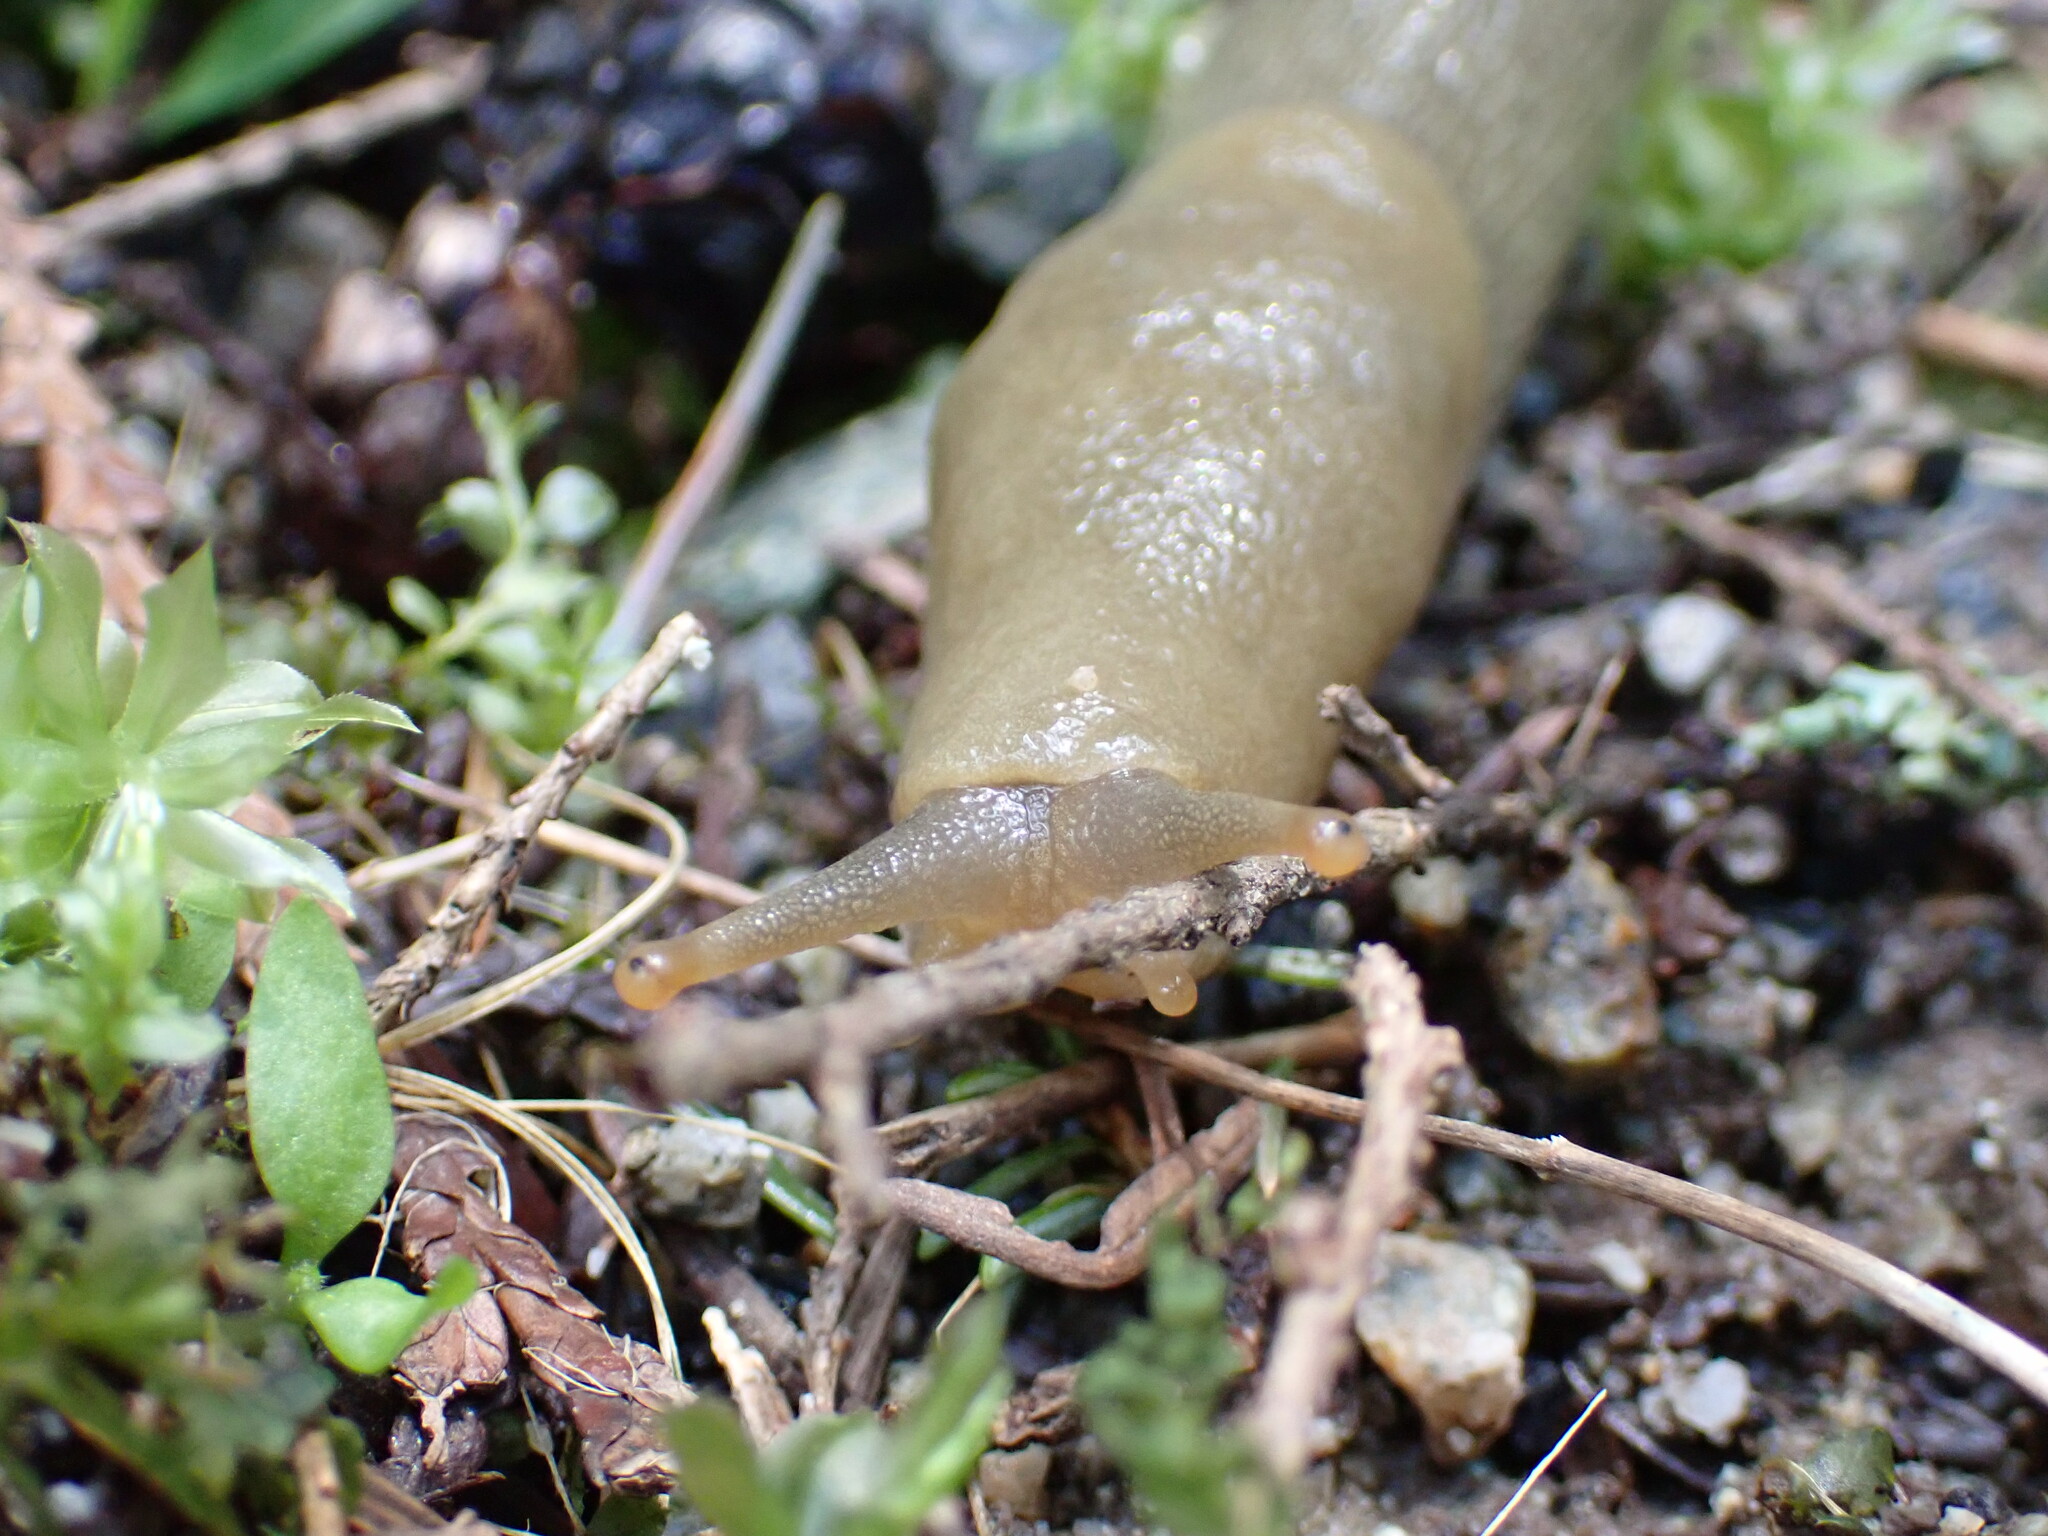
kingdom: Animalia
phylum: Mollusca
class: Gastropoda
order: Stylommatophora
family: Ariolimacidae
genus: Ariolimax
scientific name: Ariolimax columbianus
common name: Pacific banana slug
